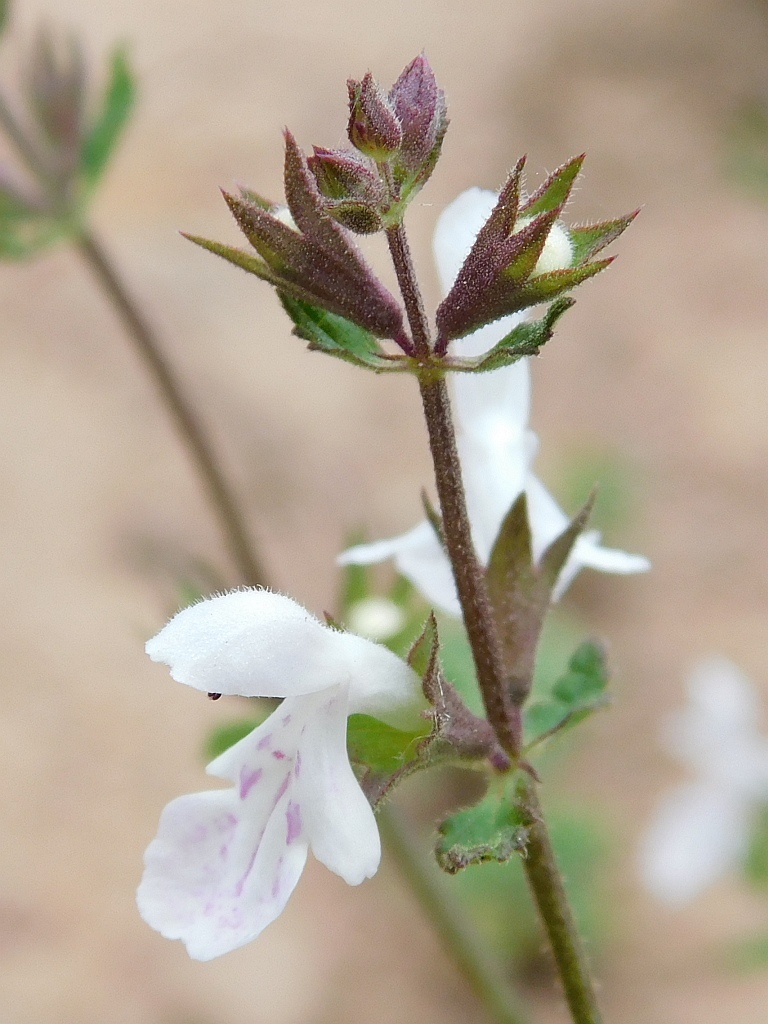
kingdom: Plantae
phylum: Tracheophyta
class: Magnoliopsida
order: Lamiales
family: Lamiaceae
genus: Stachys
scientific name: Stachys aethiopica
